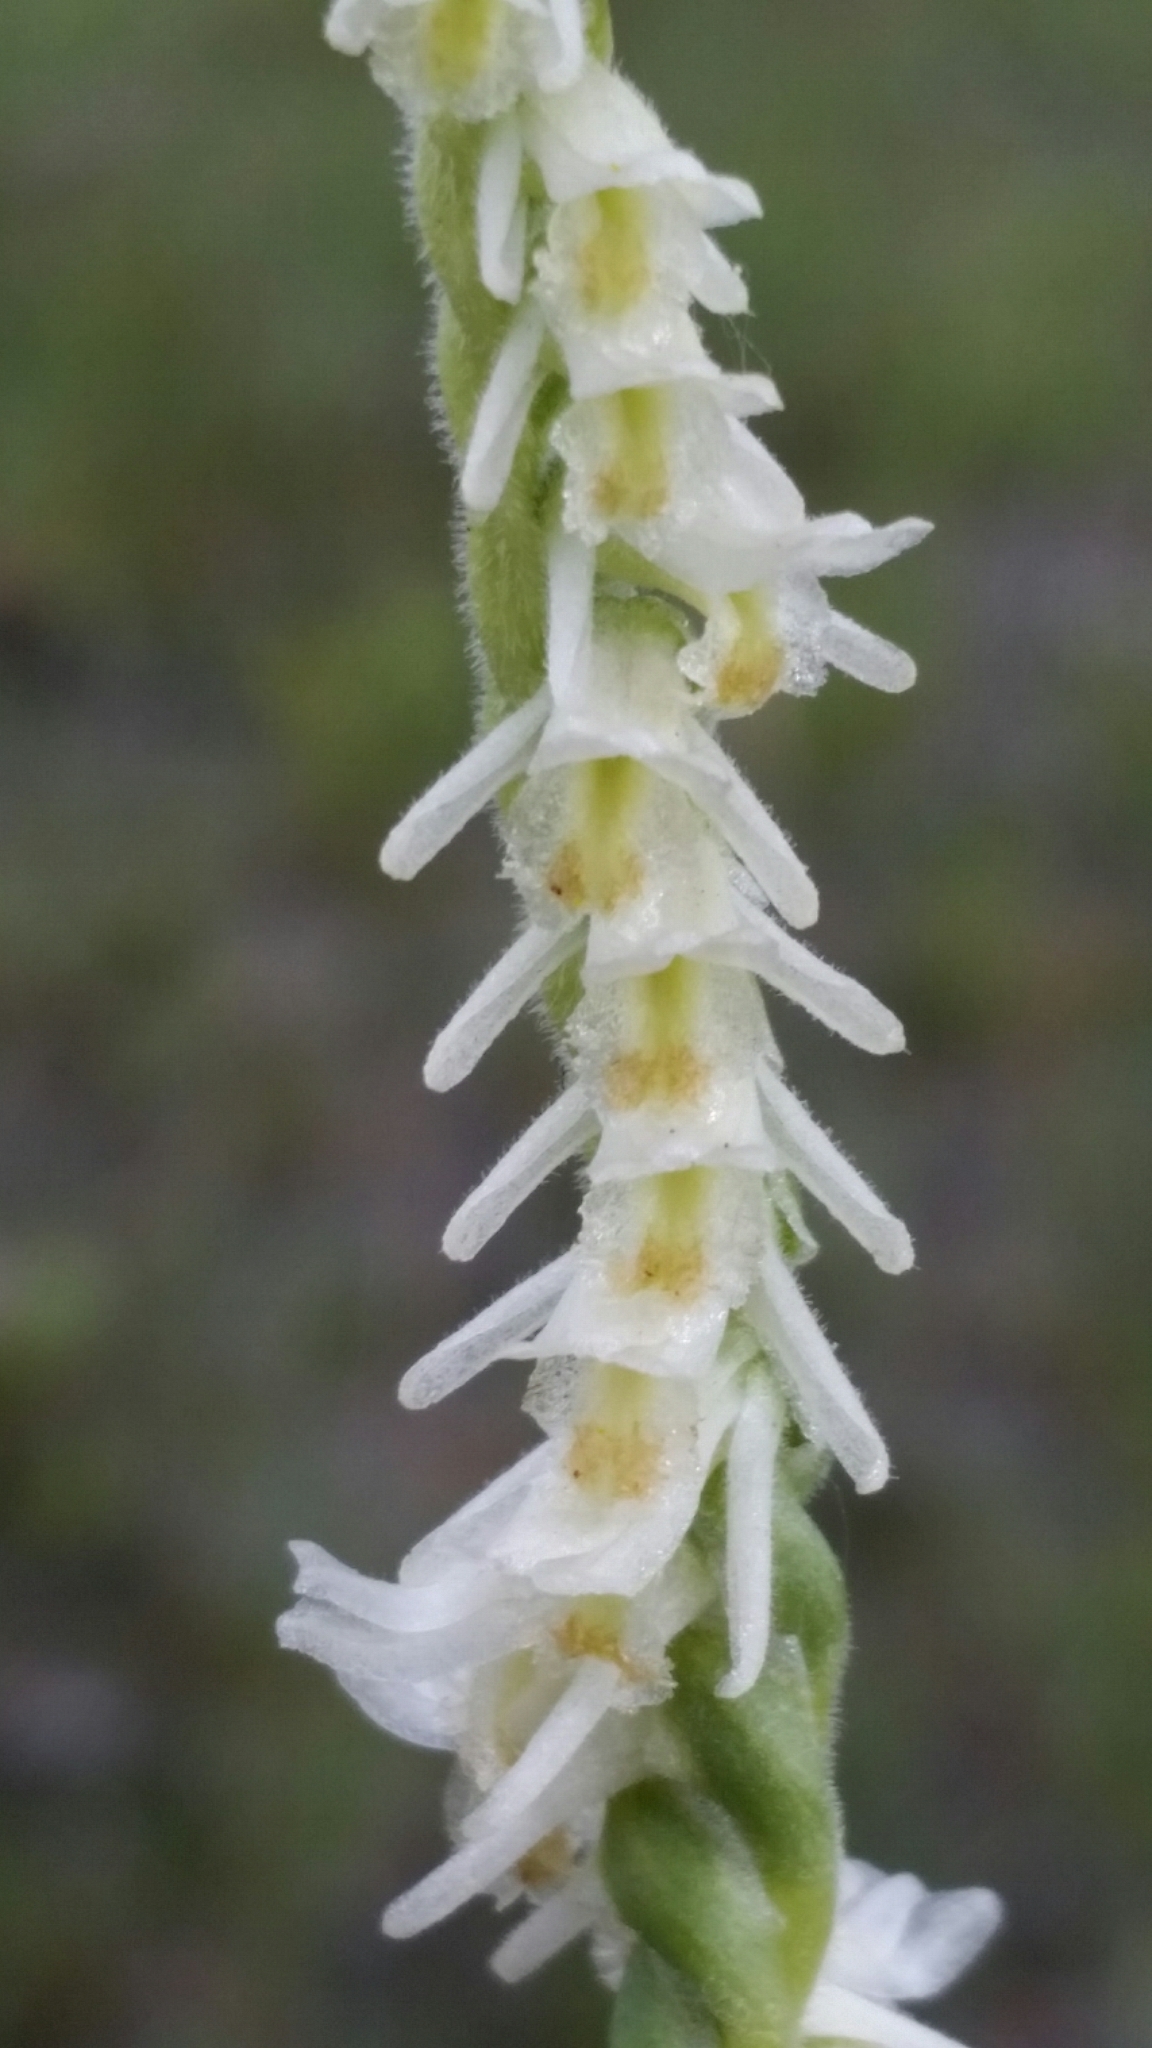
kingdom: Plantae
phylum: Tracheophyta
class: Liliopsida
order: Asparagales
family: Orchidaceae
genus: Spiranthes
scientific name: Spiranthes vernalis
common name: Spring ladies'-tresses
